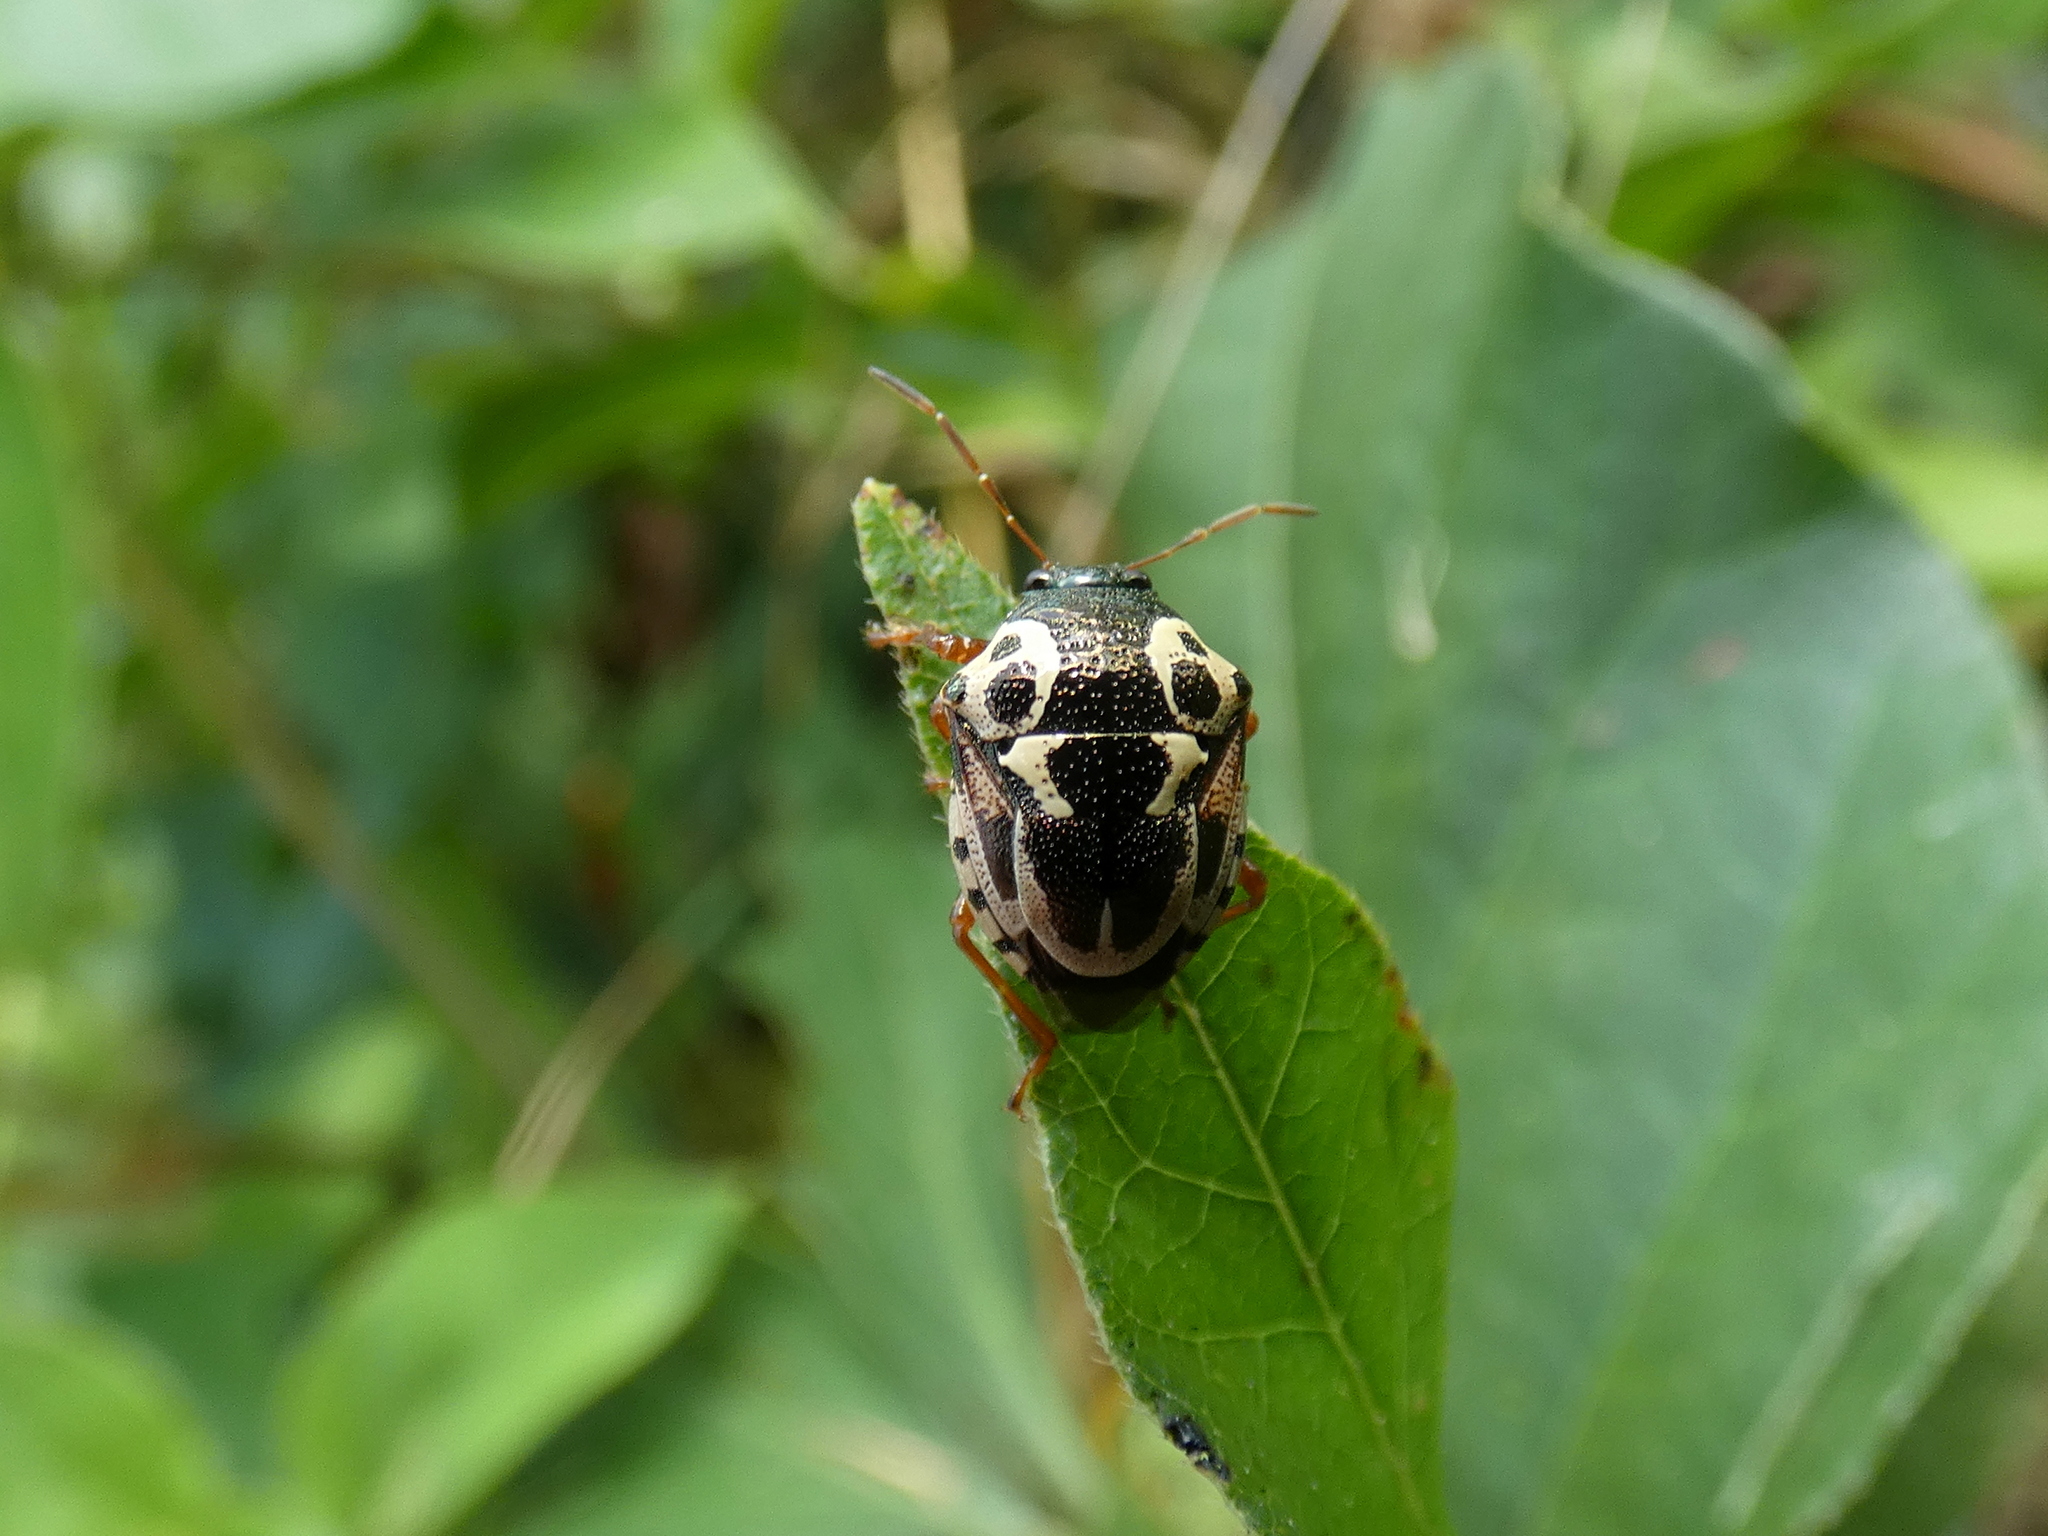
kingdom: Animalia
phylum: Arthropoda
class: Insecta
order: Hemiptera
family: Pentatomidae
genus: Stiretrus
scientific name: Stiretrus anchorago
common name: Anchor stink bug
